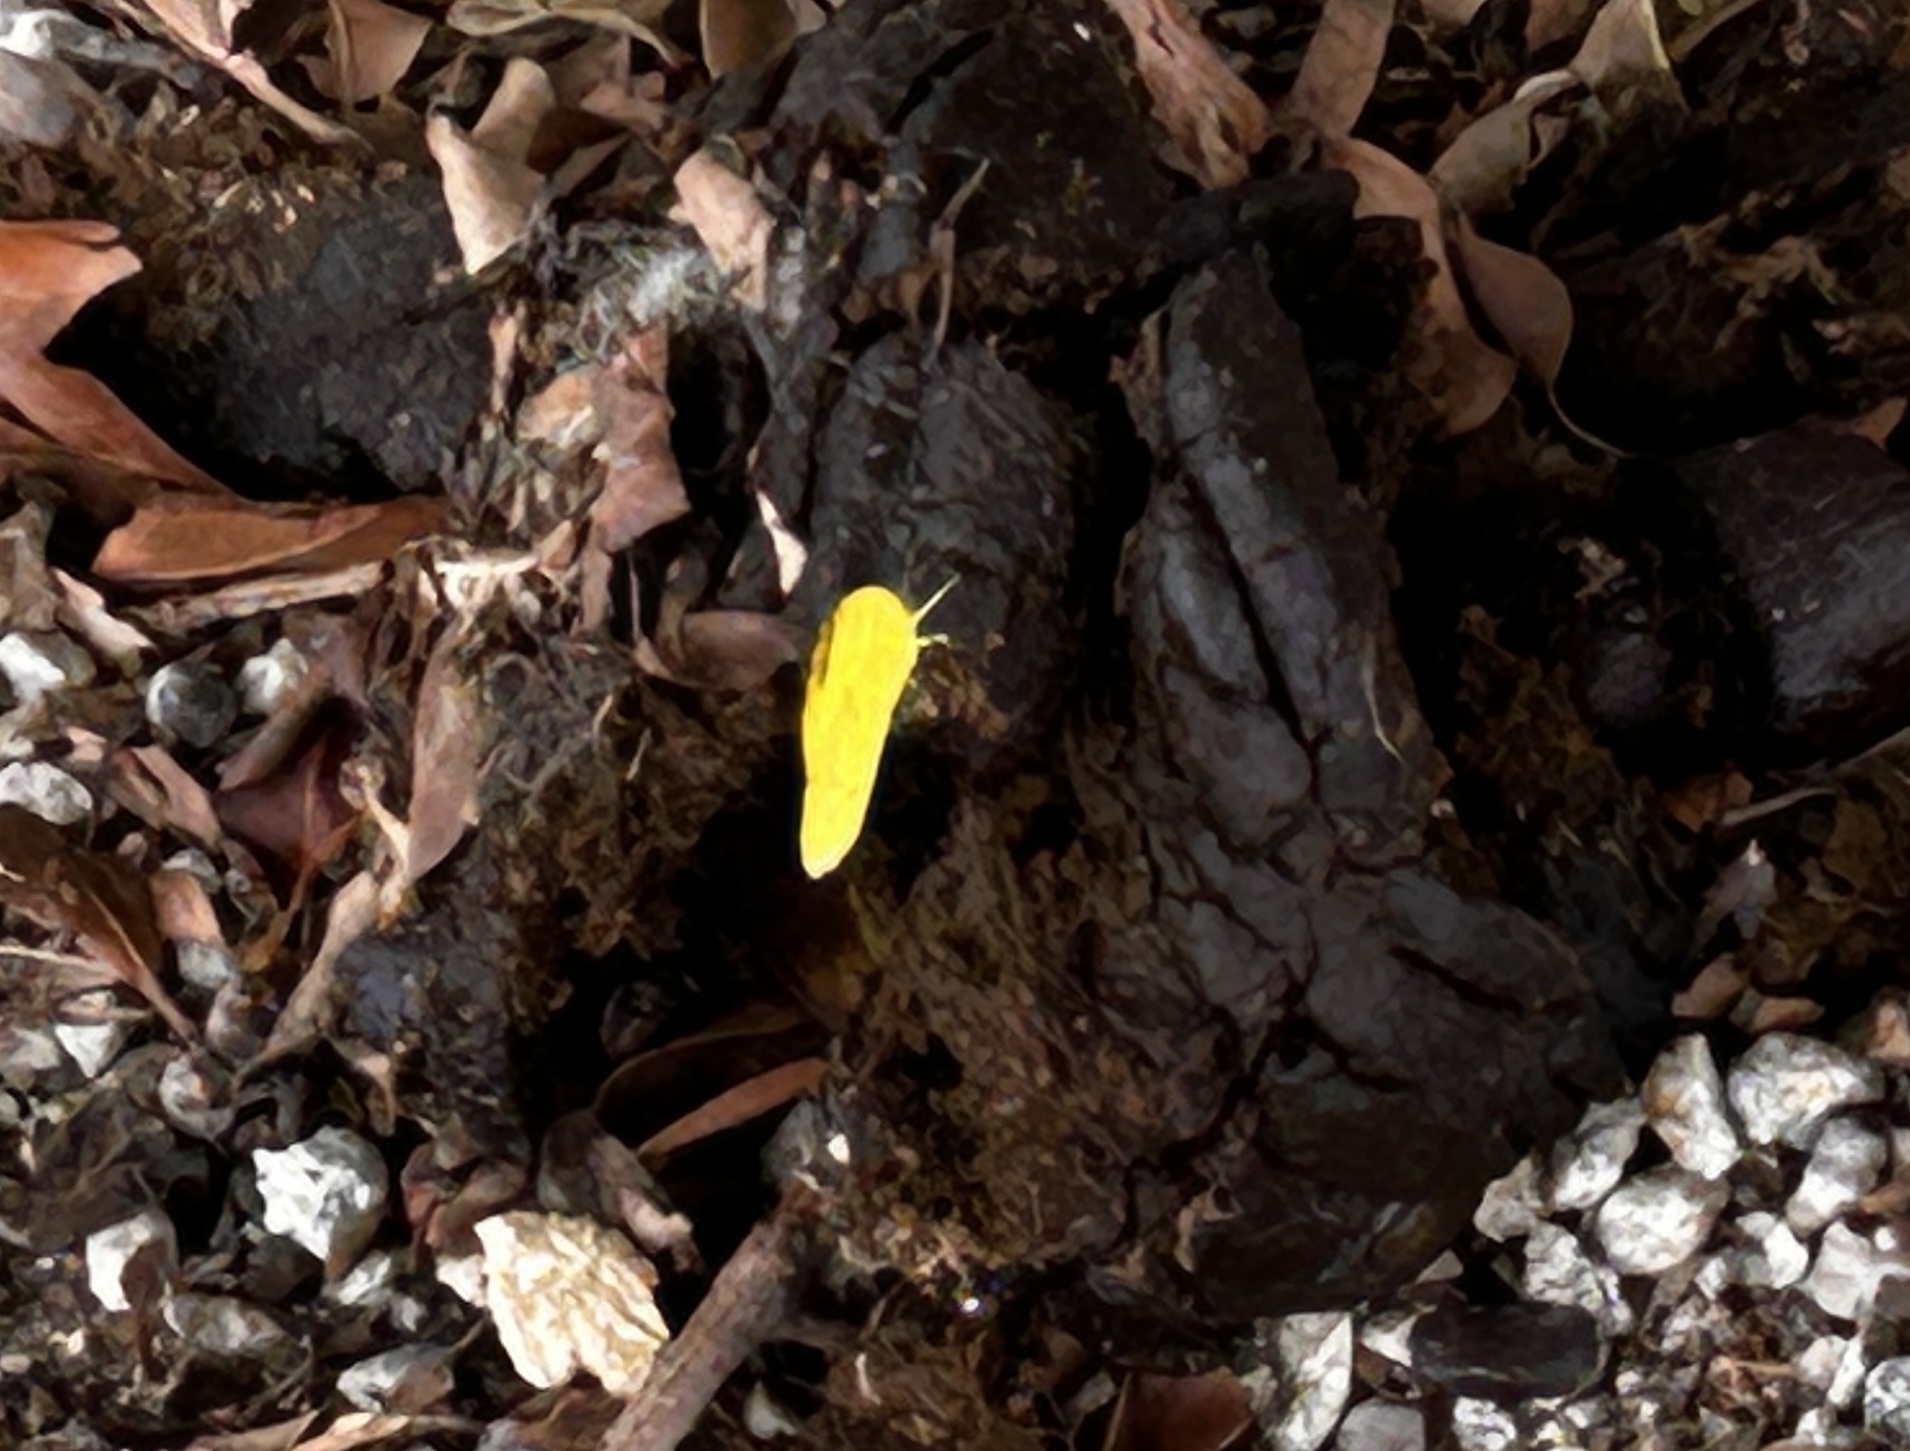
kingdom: Animalia
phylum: Arthropoda
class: Insecta
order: Lepidoptera
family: Pieridae
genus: Eurema
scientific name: Eurema blanda
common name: Three-spot grass yellow
